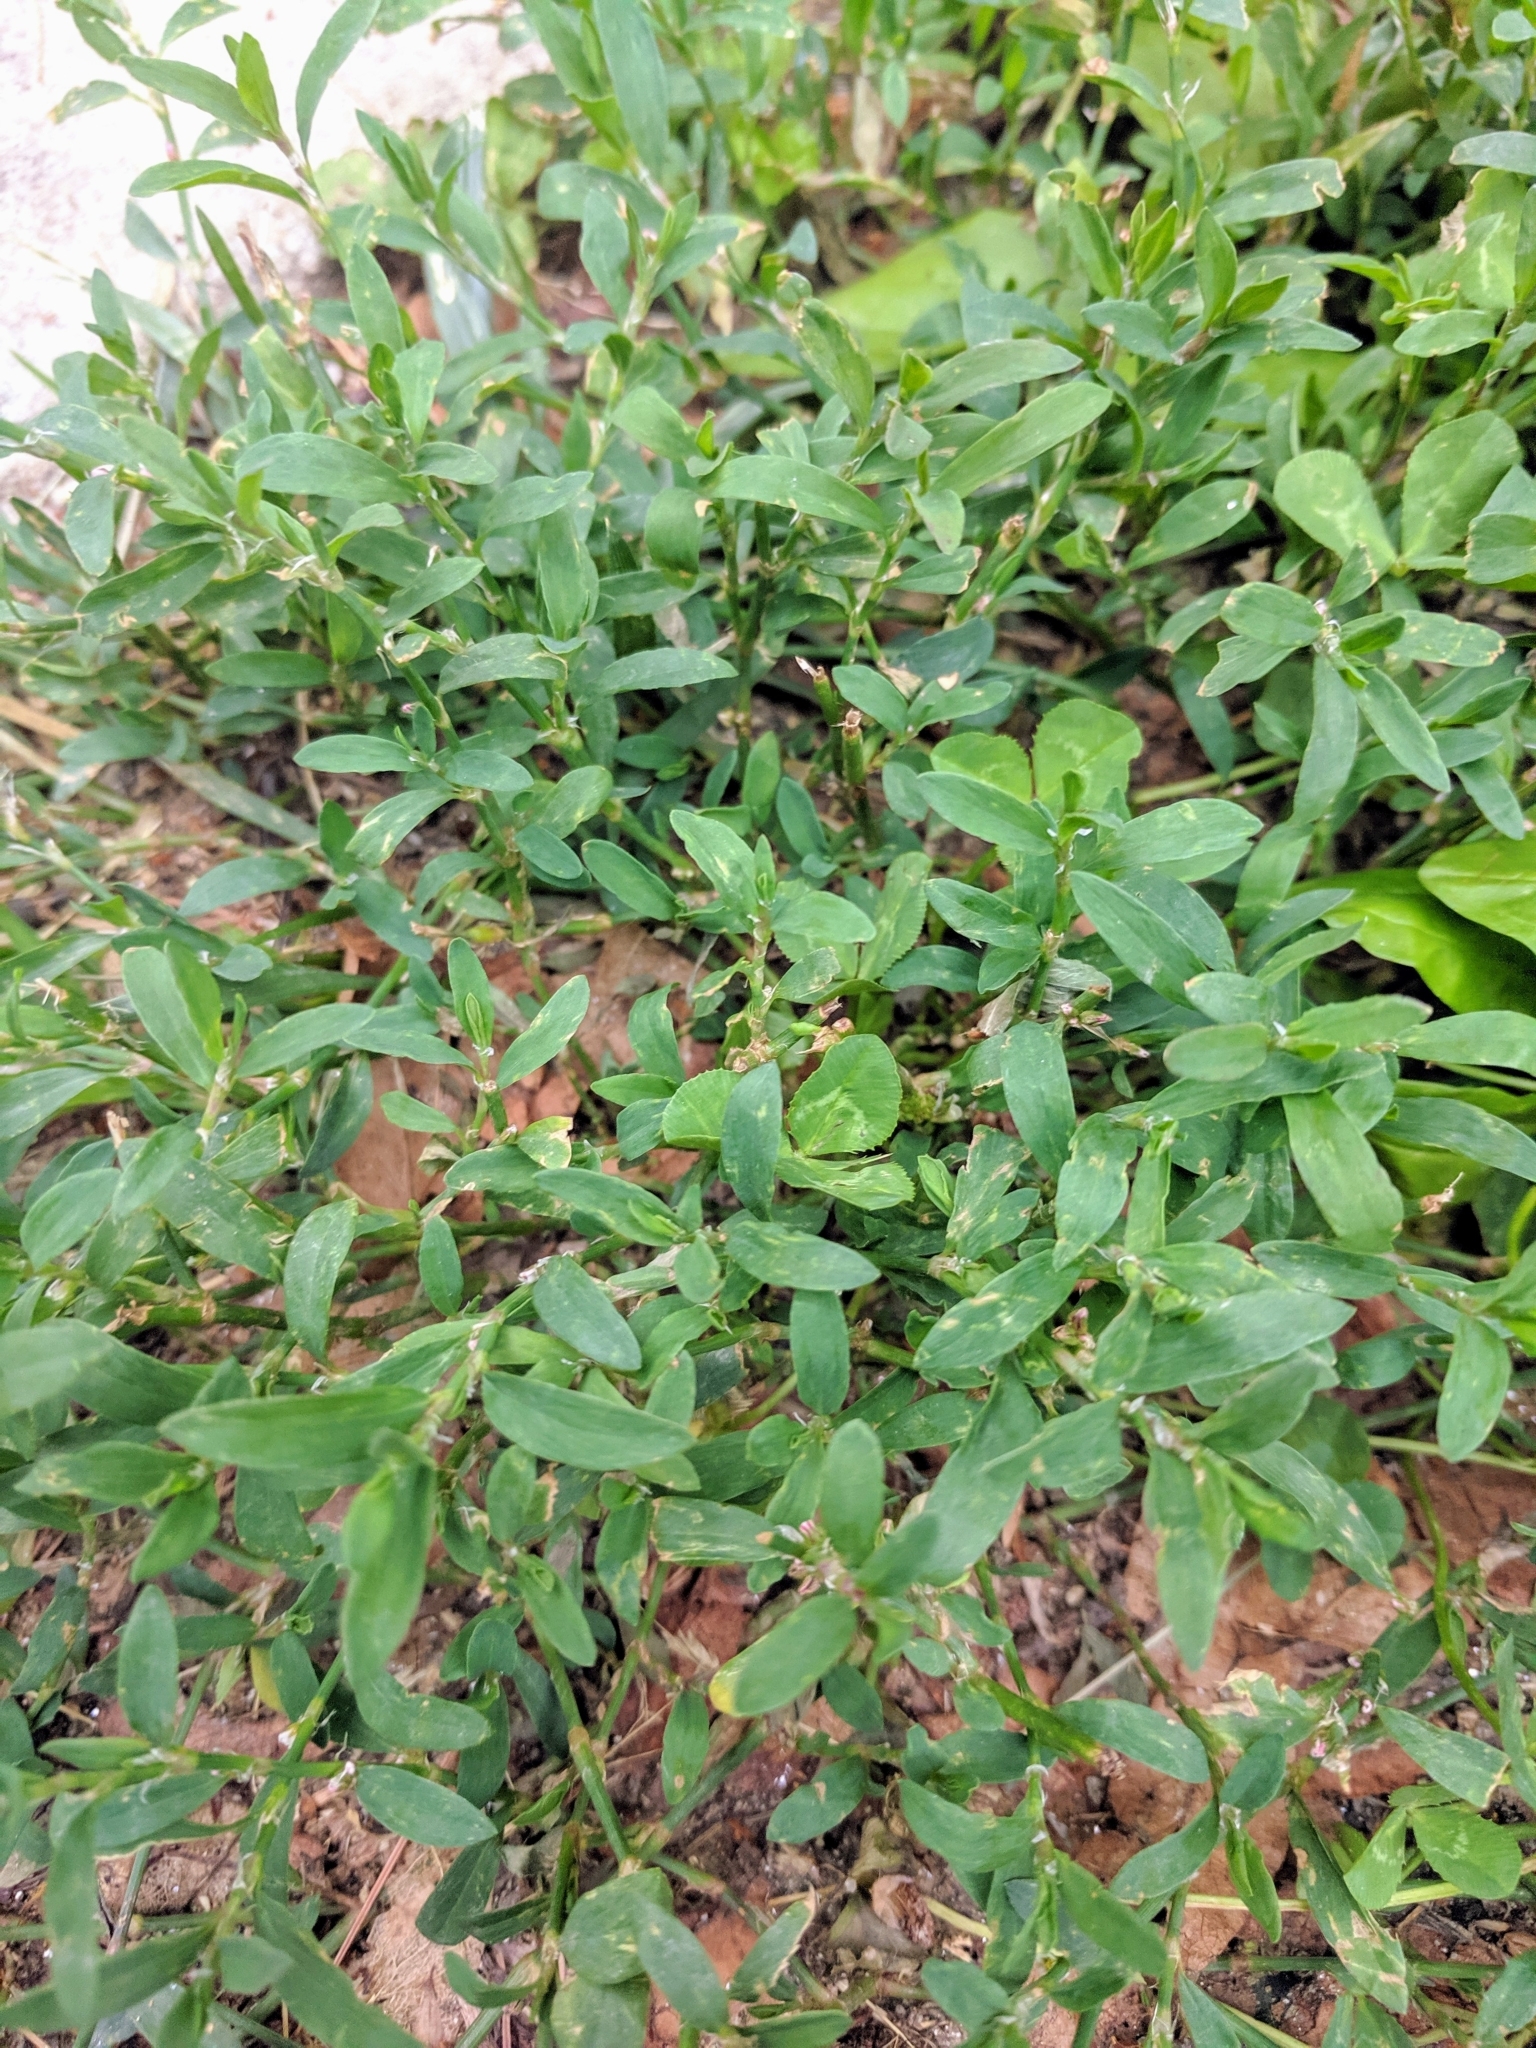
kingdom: Plantae
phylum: Tracheophyta
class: Magnoliopsida
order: Caryophyllales
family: Polygonaceae
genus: Polygonum
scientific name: Polygonum aviculare
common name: Prostrate knotweed
